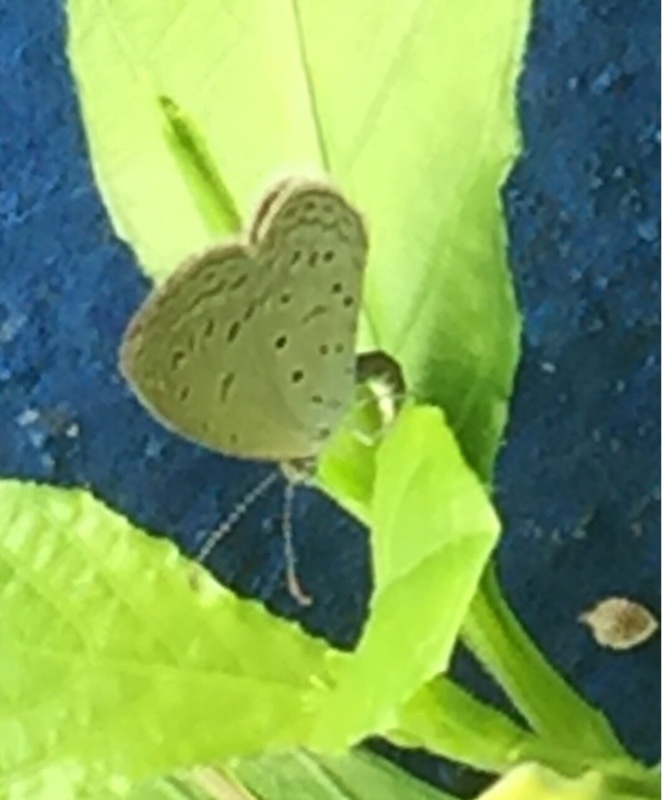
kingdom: Animalia
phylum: Arthropoda
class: Insecta
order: Lepidoptera
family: Lycaenidae
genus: Zizula
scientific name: Zizula hylax
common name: Gaika blue
